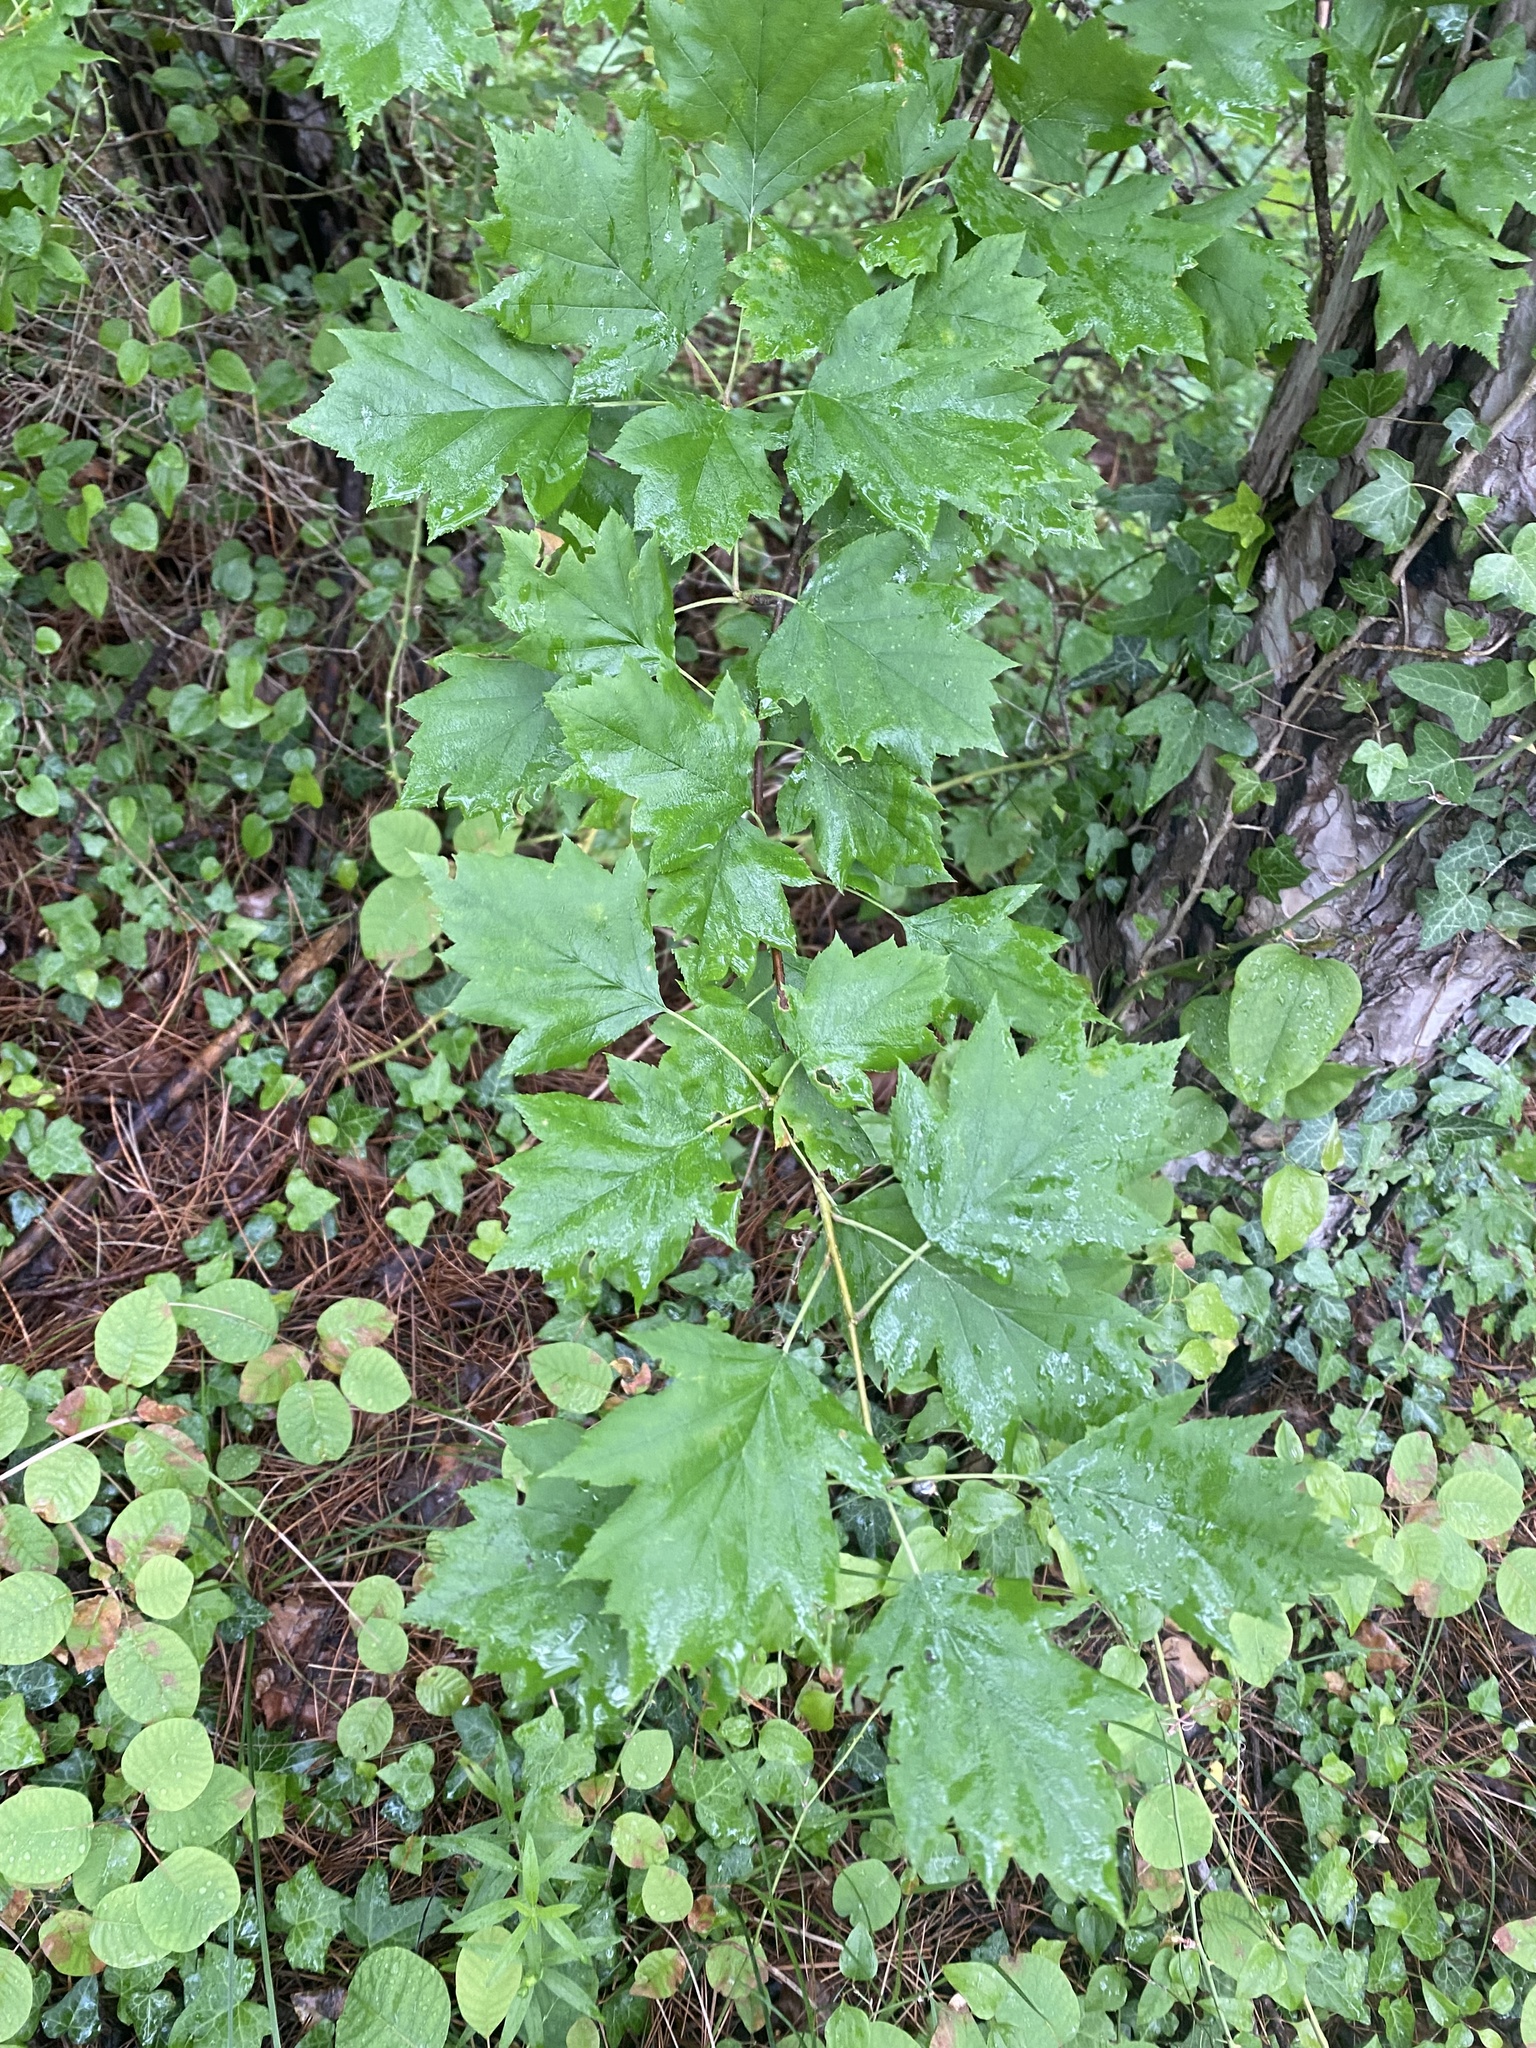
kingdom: Plantae
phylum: Tracheophyta
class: Magnoliopsida
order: Rosales
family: Rosaceae
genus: Torminalis
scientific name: Torminalis glaberrima
